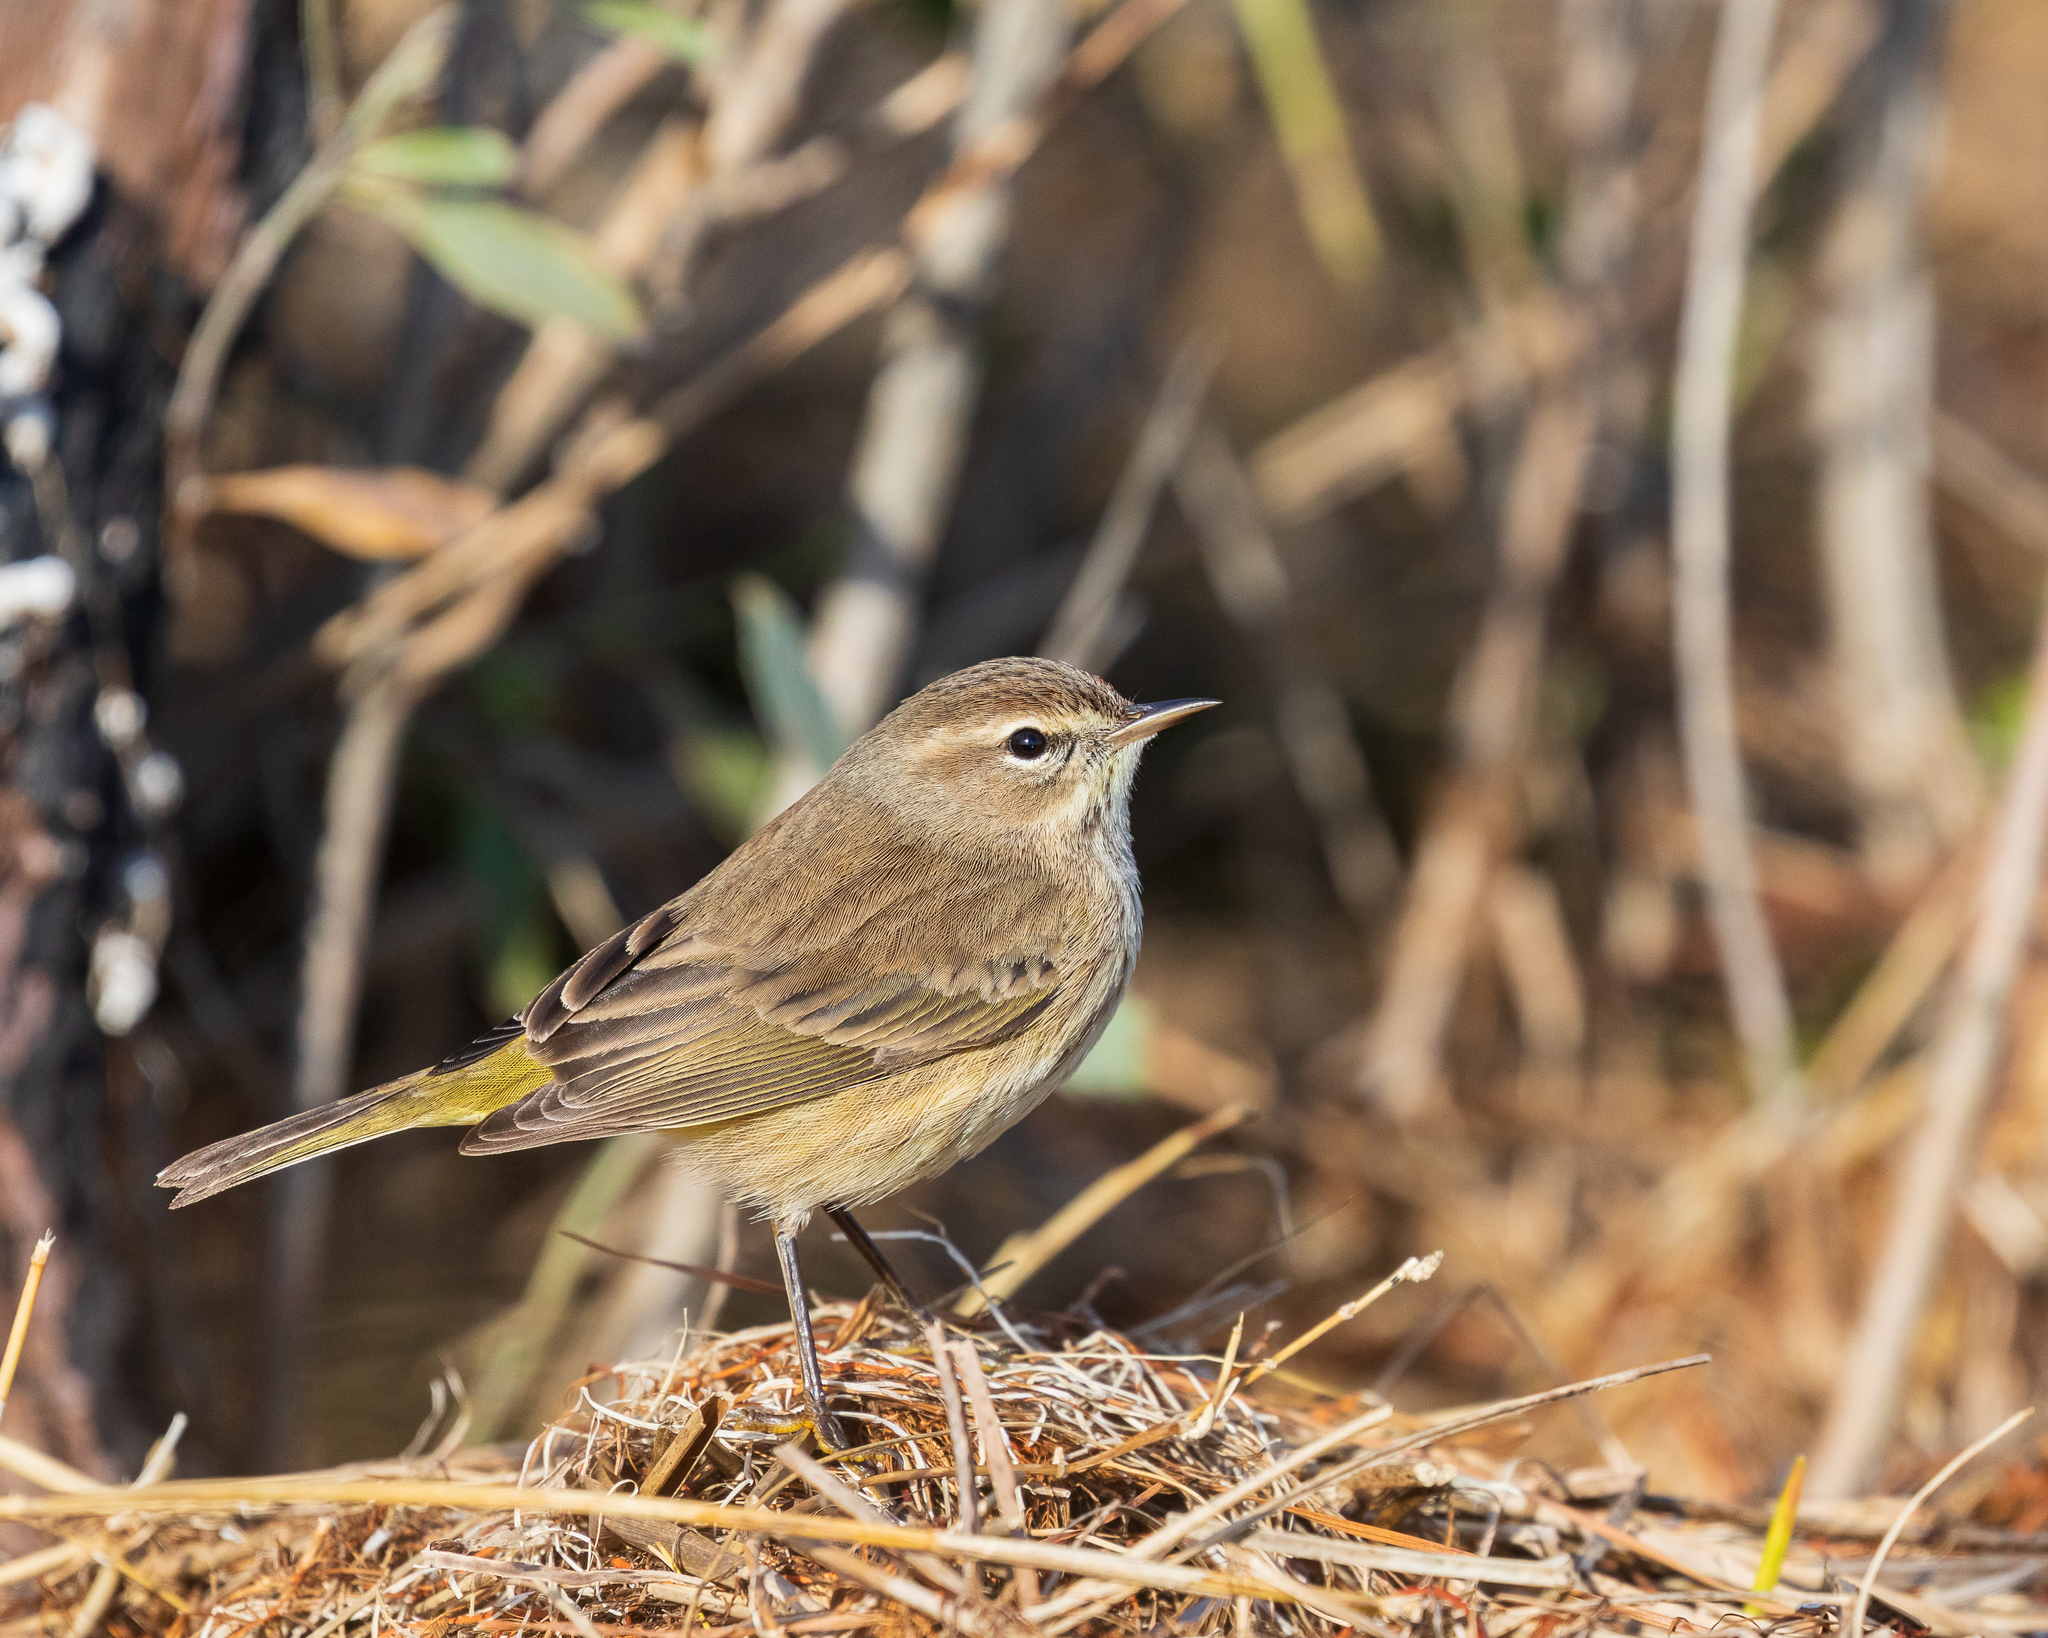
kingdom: Animalia
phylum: Chordata
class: Aves
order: Passeriformes
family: Parulidae
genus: Setophaga
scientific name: Setophaga palmarum
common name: Palm warbler
